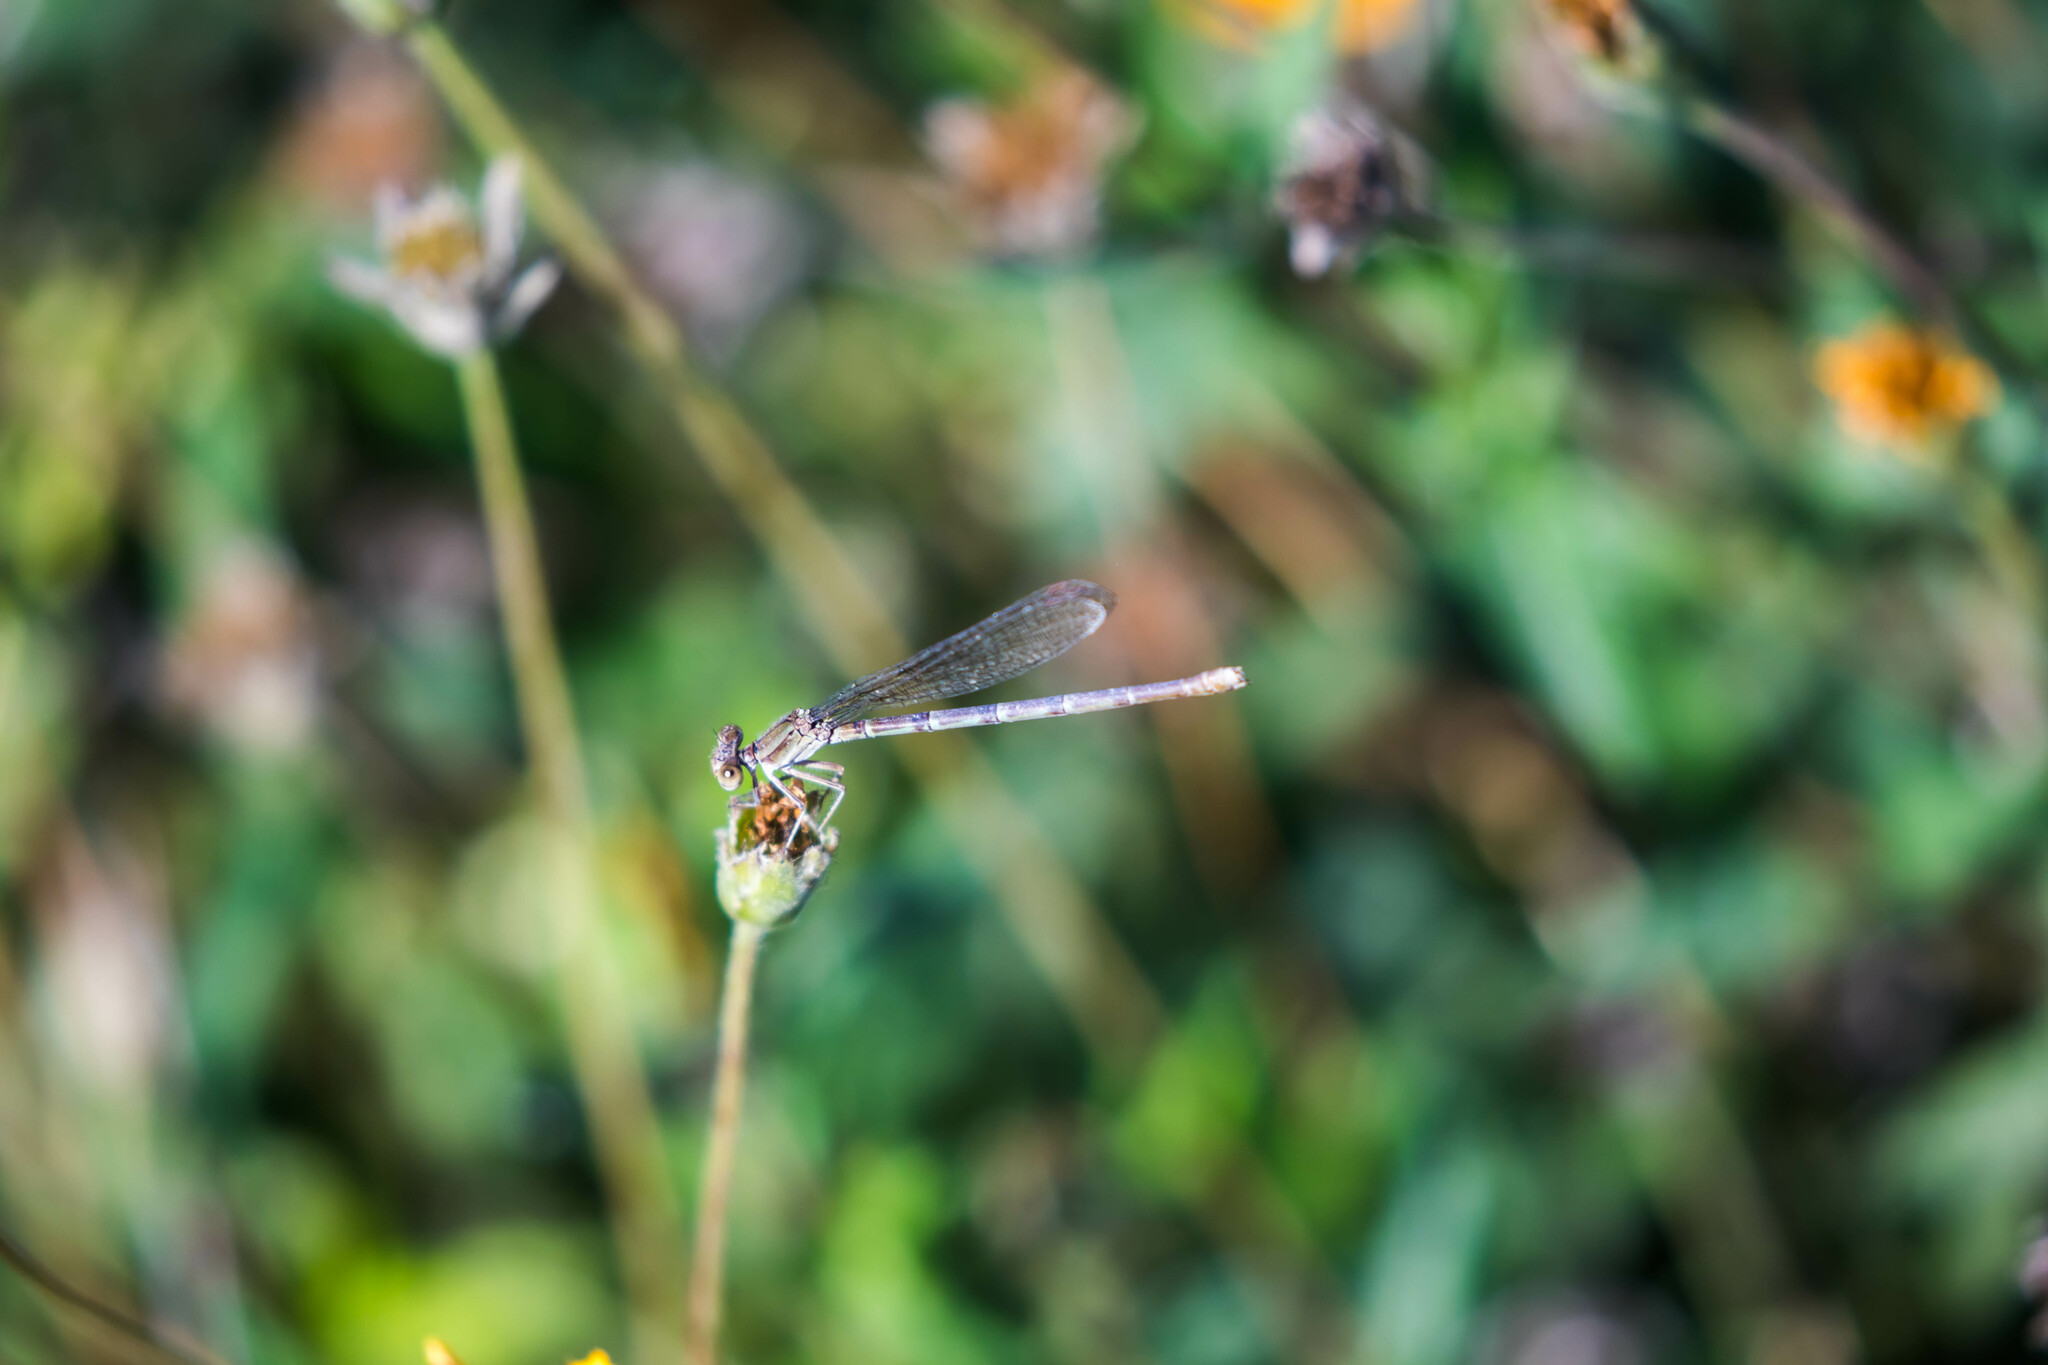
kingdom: Animalia
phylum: Arthropoda
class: Insecta
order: Odonata
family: Coenagrionidae
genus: Argia
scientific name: Argia sedula
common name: Blue-ringed dancer
